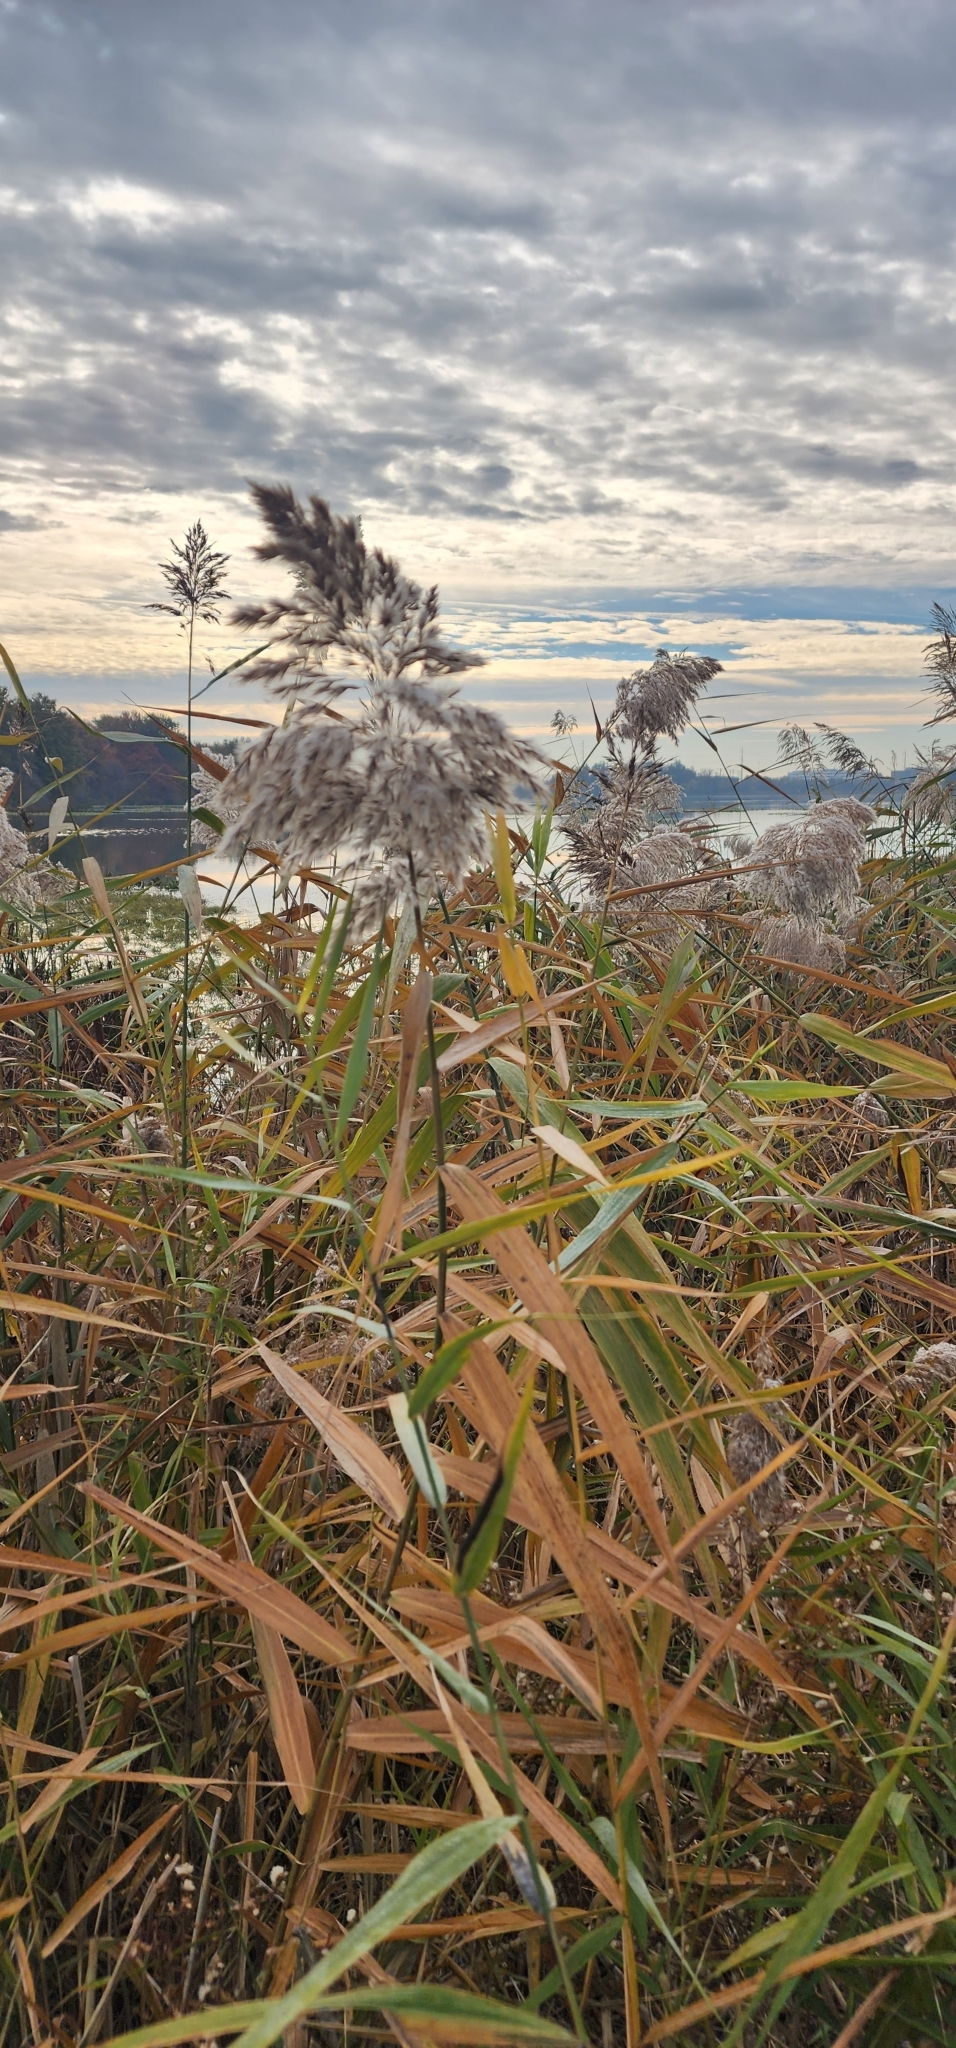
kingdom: Plantae
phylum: Tracheophyta
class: Liliopsida
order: Poales
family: Poaceae
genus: Phragmites
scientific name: Phragmites australis
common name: Common reed
